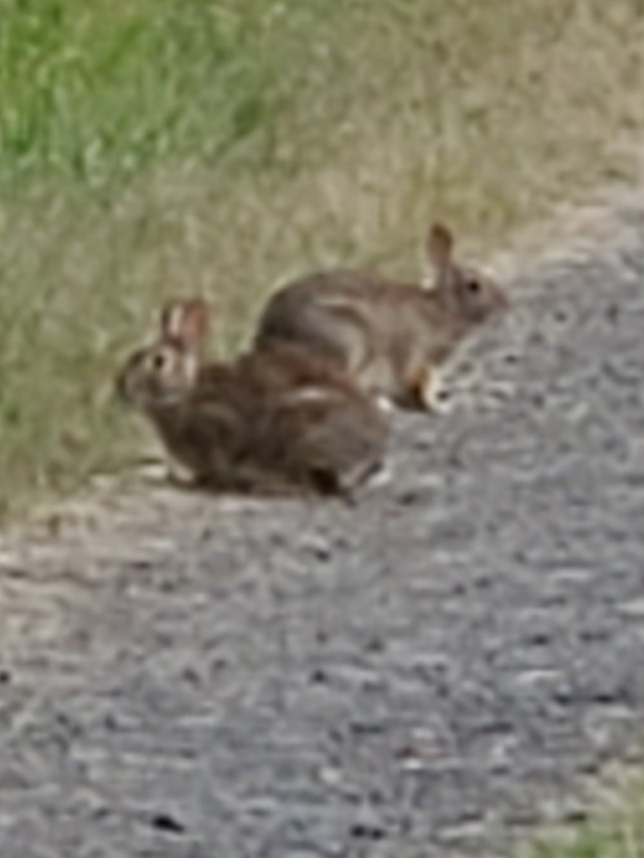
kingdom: Animalia
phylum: Chordata
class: Mammalia
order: Lagomorpha
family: Leporidae
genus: Sylvilagus
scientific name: Sylvilagus
